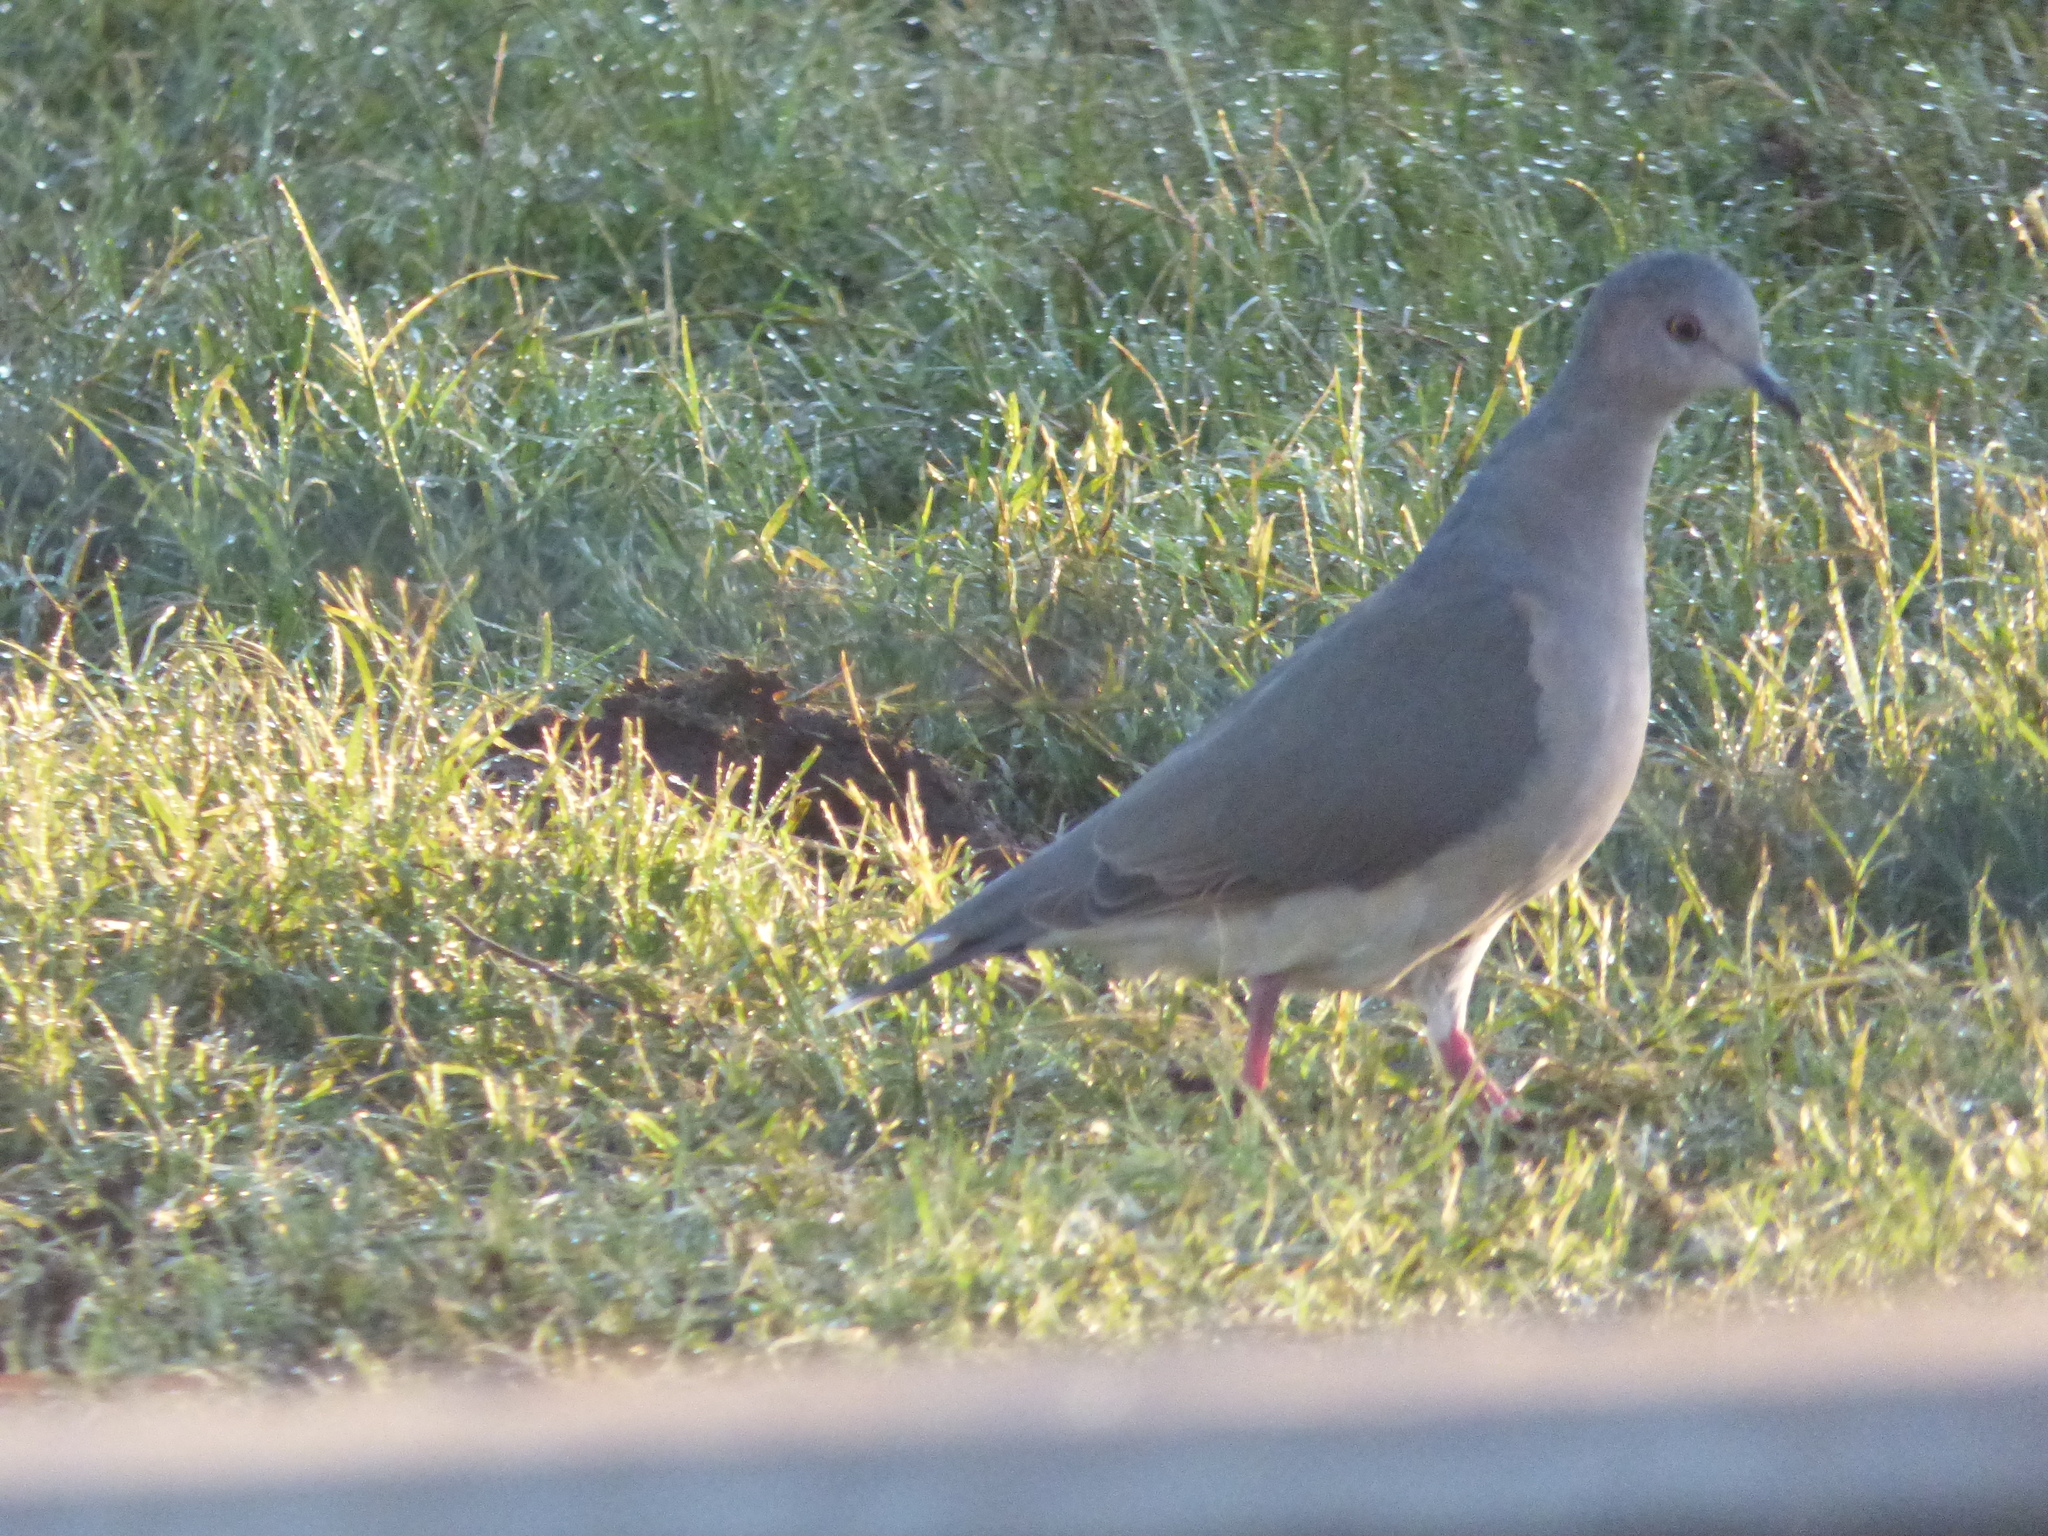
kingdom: Animalia
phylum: Chordata
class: Aves
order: Columbiformes
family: Columbidae
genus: Leptotila
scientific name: Leptotila verreauxi
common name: White-tipped dove
